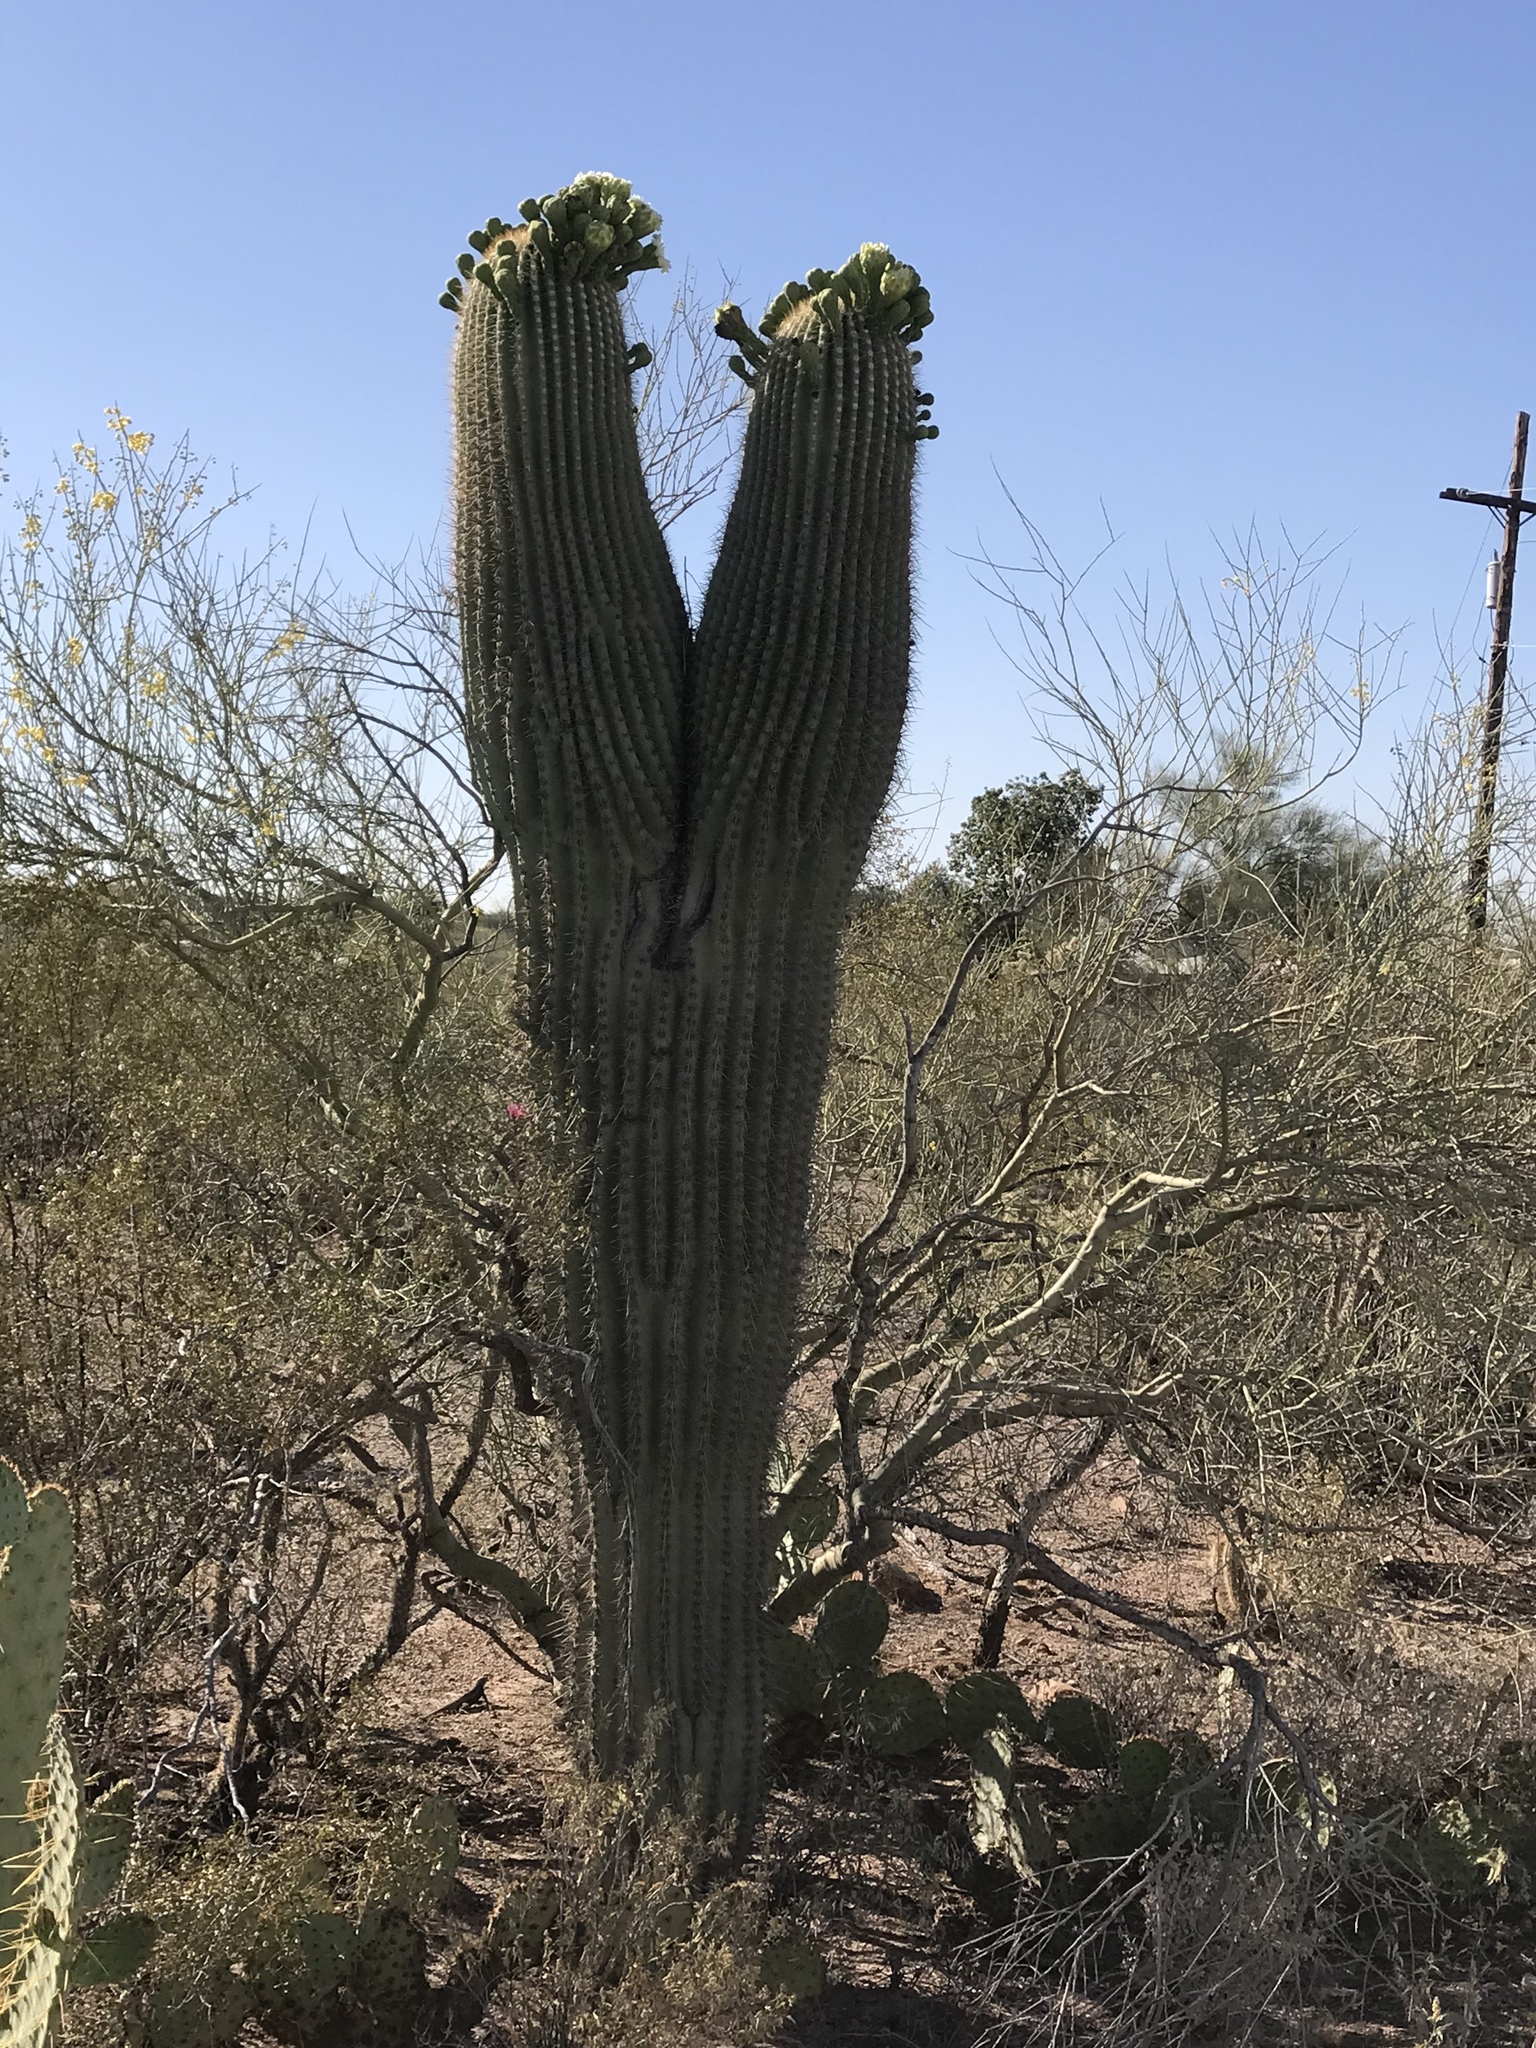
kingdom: Plantae
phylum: Tracheophyta
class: Magnoliopsida
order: Caryophyllales
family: Cactaceae
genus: Carnegiea
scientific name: Carnegiea gigantea
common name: Saguaro
